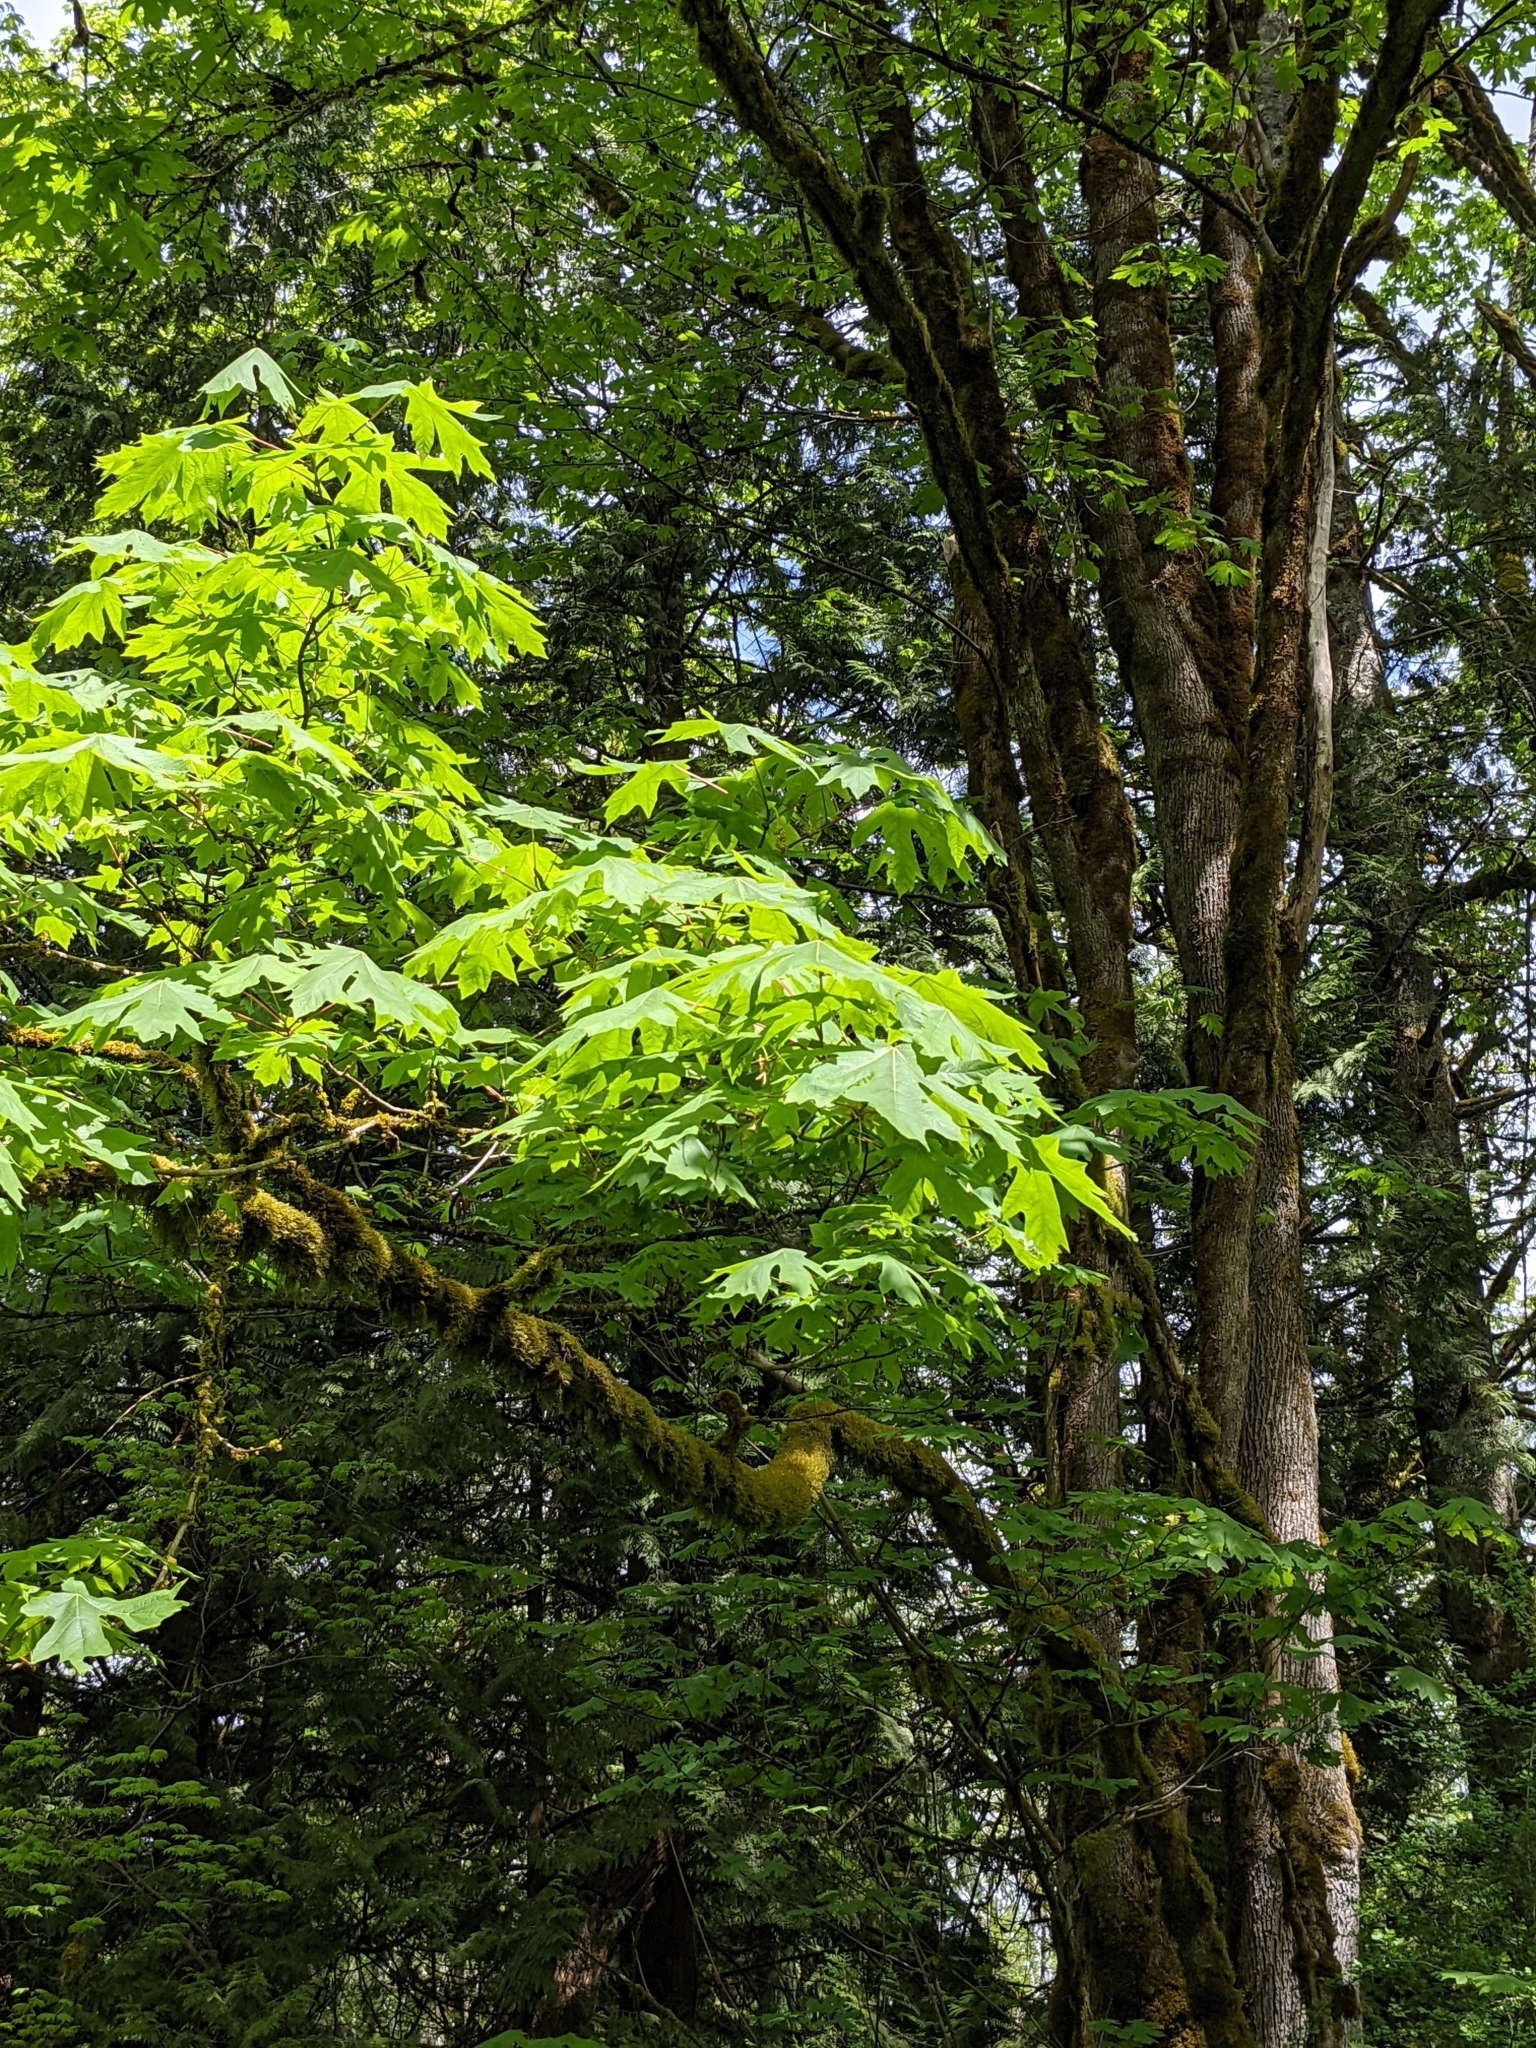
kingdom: Plantae
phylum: Tracheophyta
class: Magnoliopsida
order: Sapindales
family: Sapindaceae
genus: Acer
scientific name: Acer macrophyllum
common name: Oregon maple
